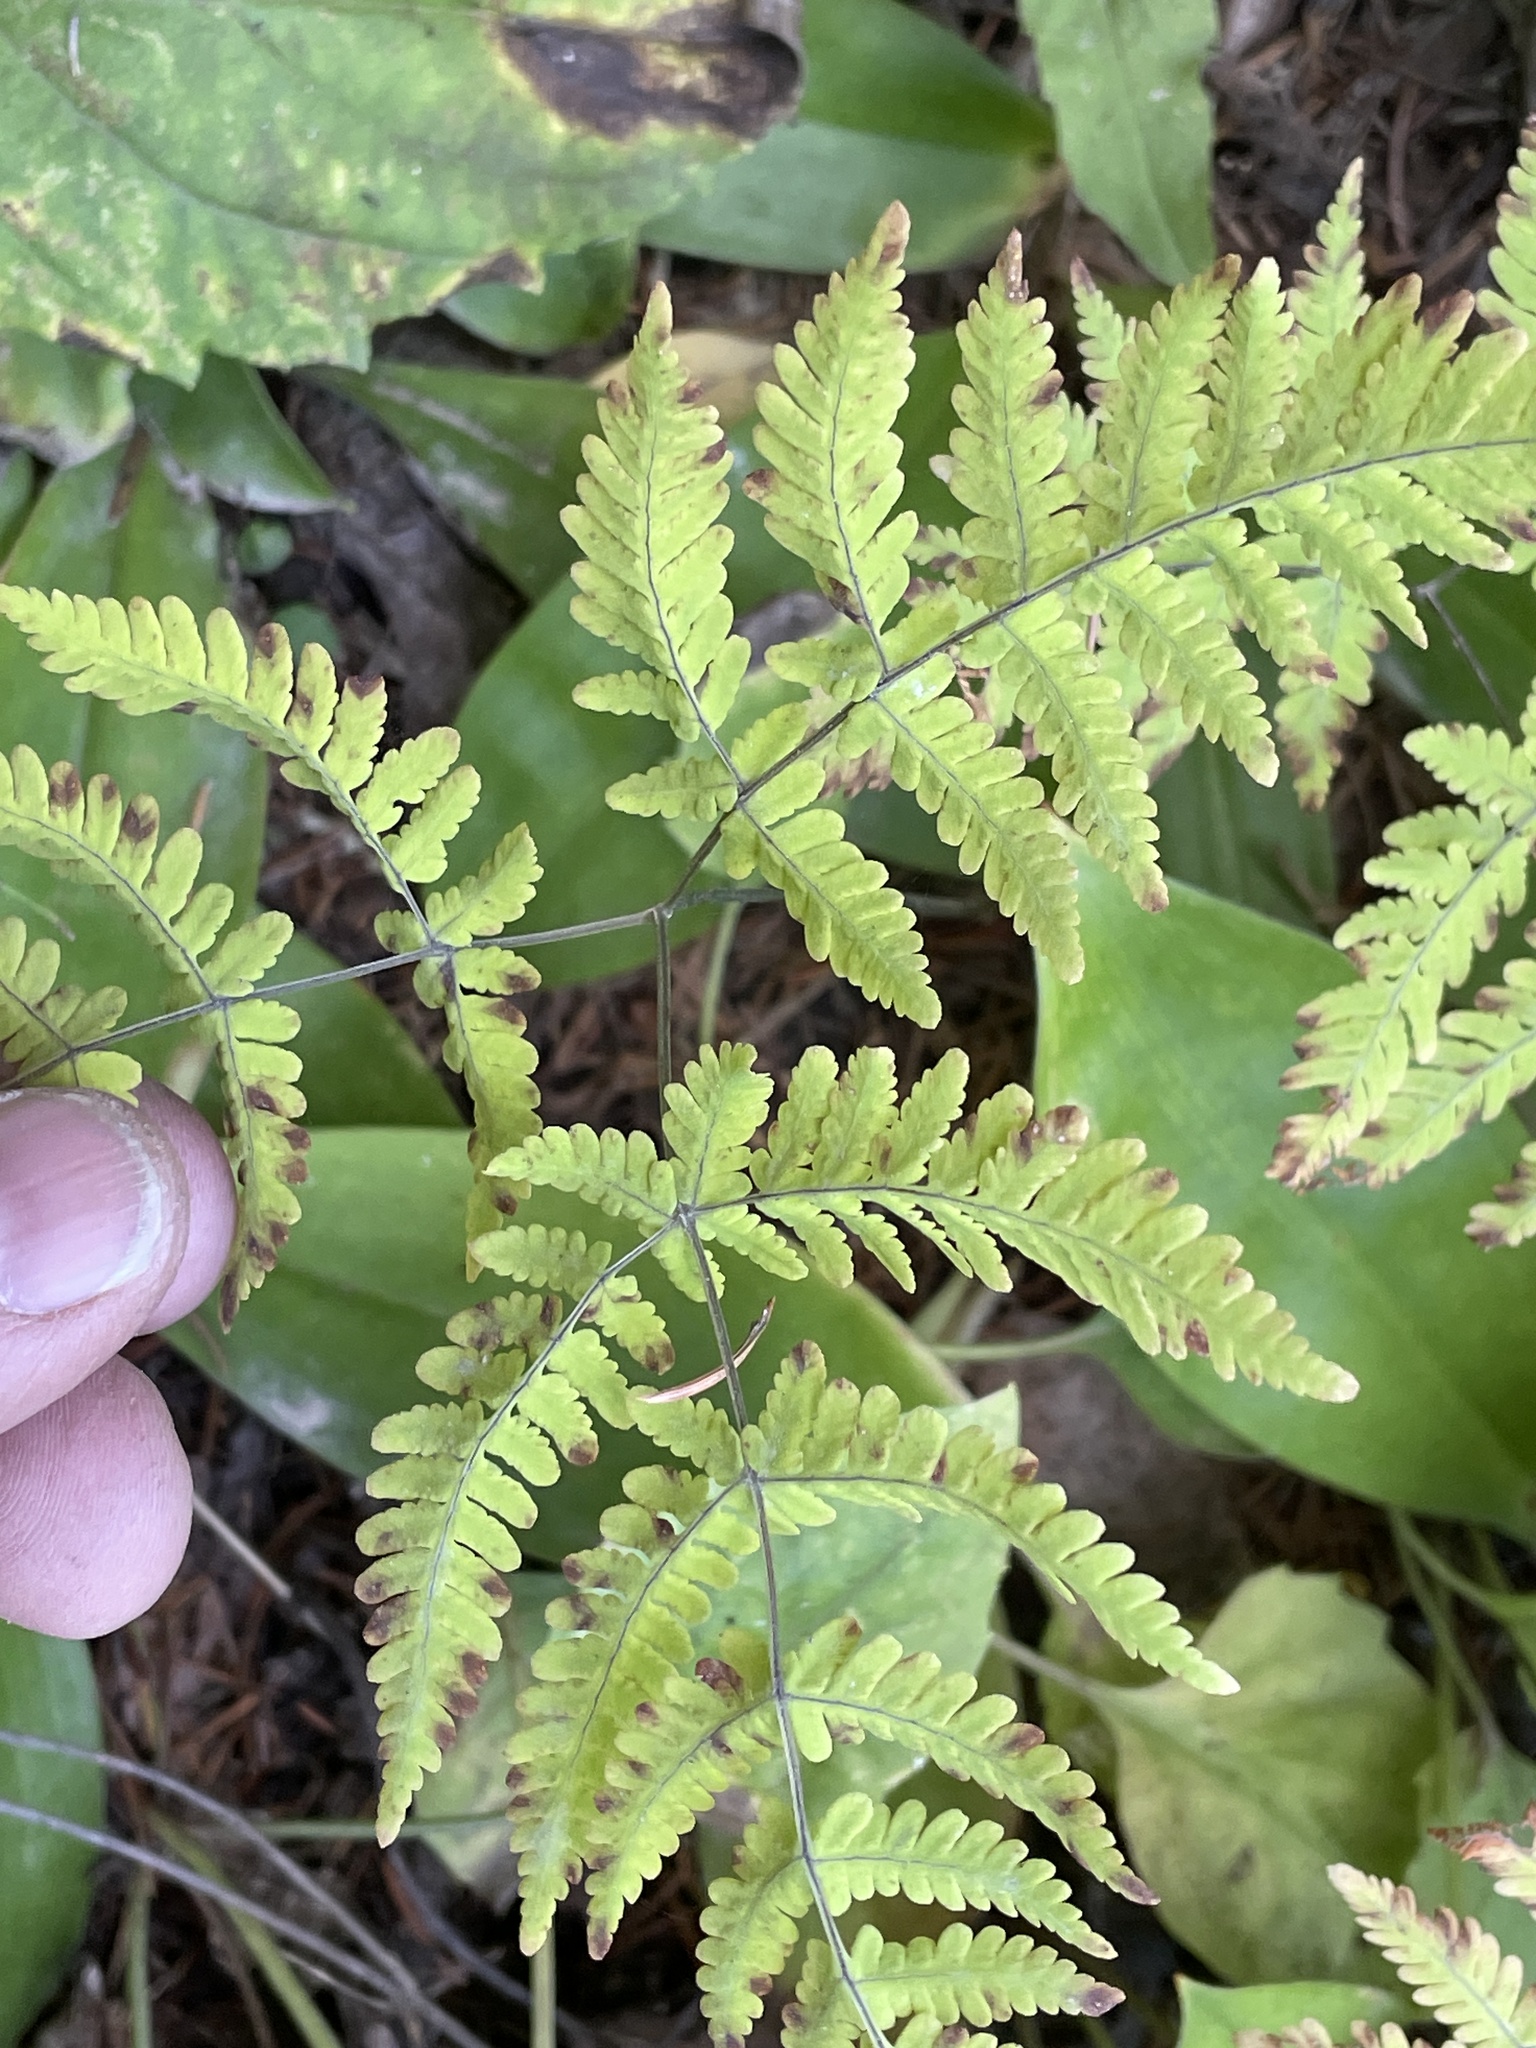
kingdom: Plantae
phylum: Tracheophyta
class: Polypodiopsida
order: Polypodiales
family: Cystopteridaceae
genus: Gymnocarpium
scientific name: Gymnocarpium dryopteris
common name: Oak fern
